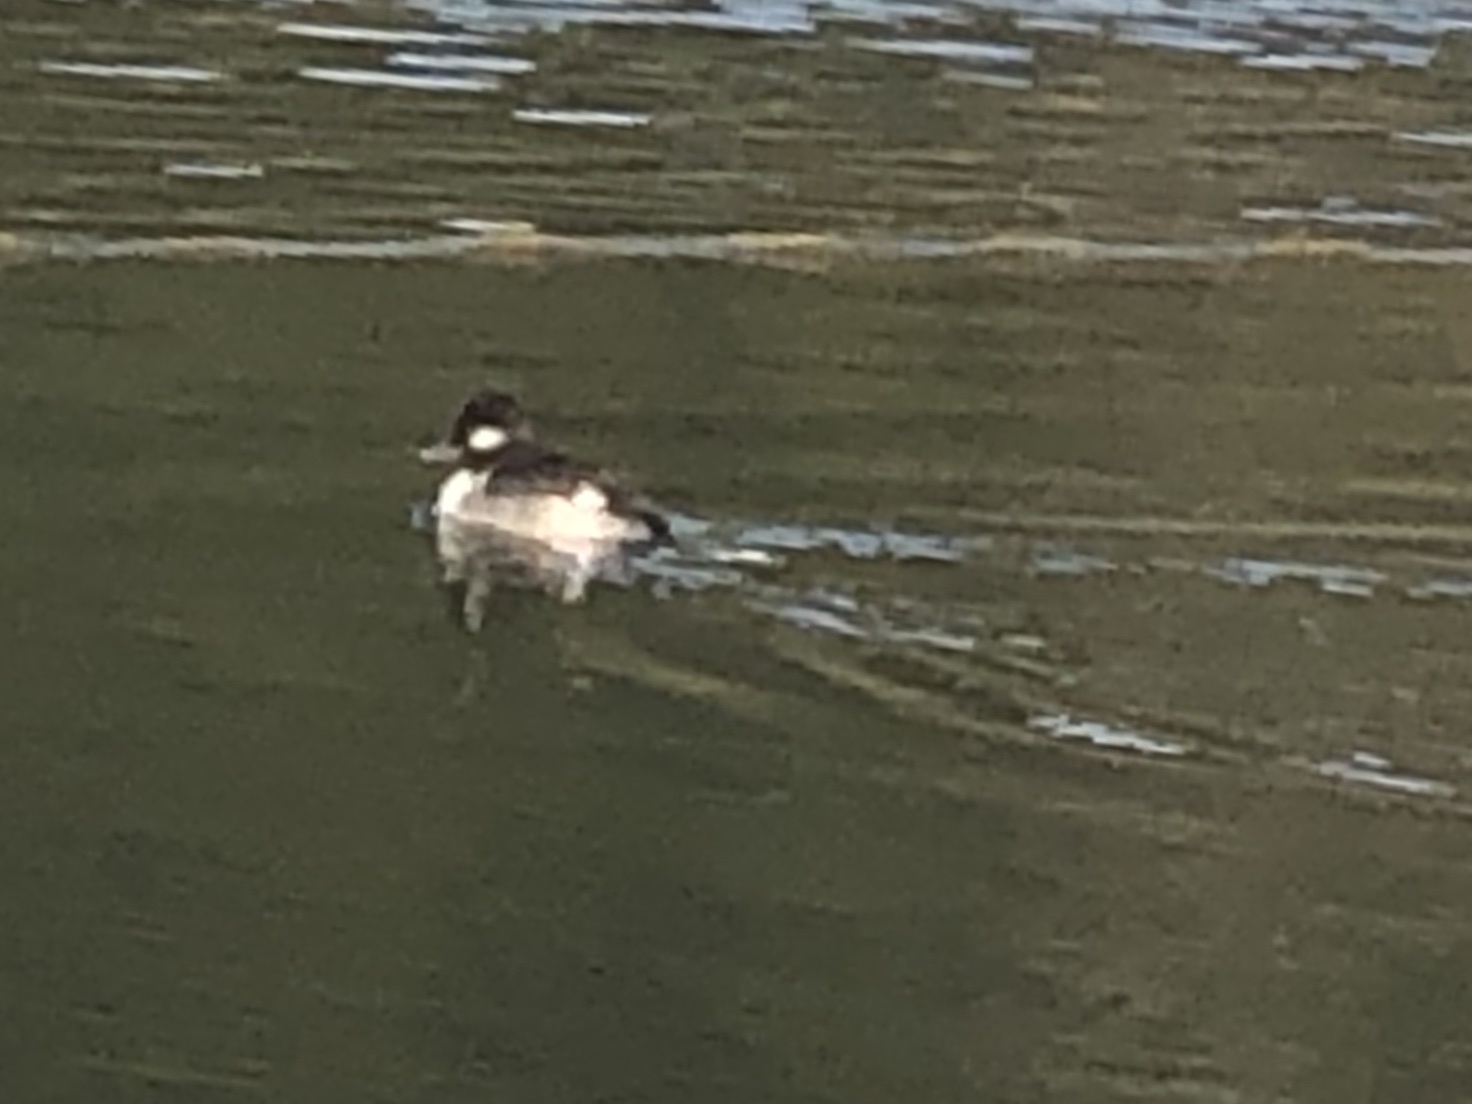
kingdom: Animalia
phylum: Chordata
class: Aves
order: Anseriformes
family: Anatidae
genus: Bucephala
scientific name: Bucephala albeola
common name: Bufflehead
